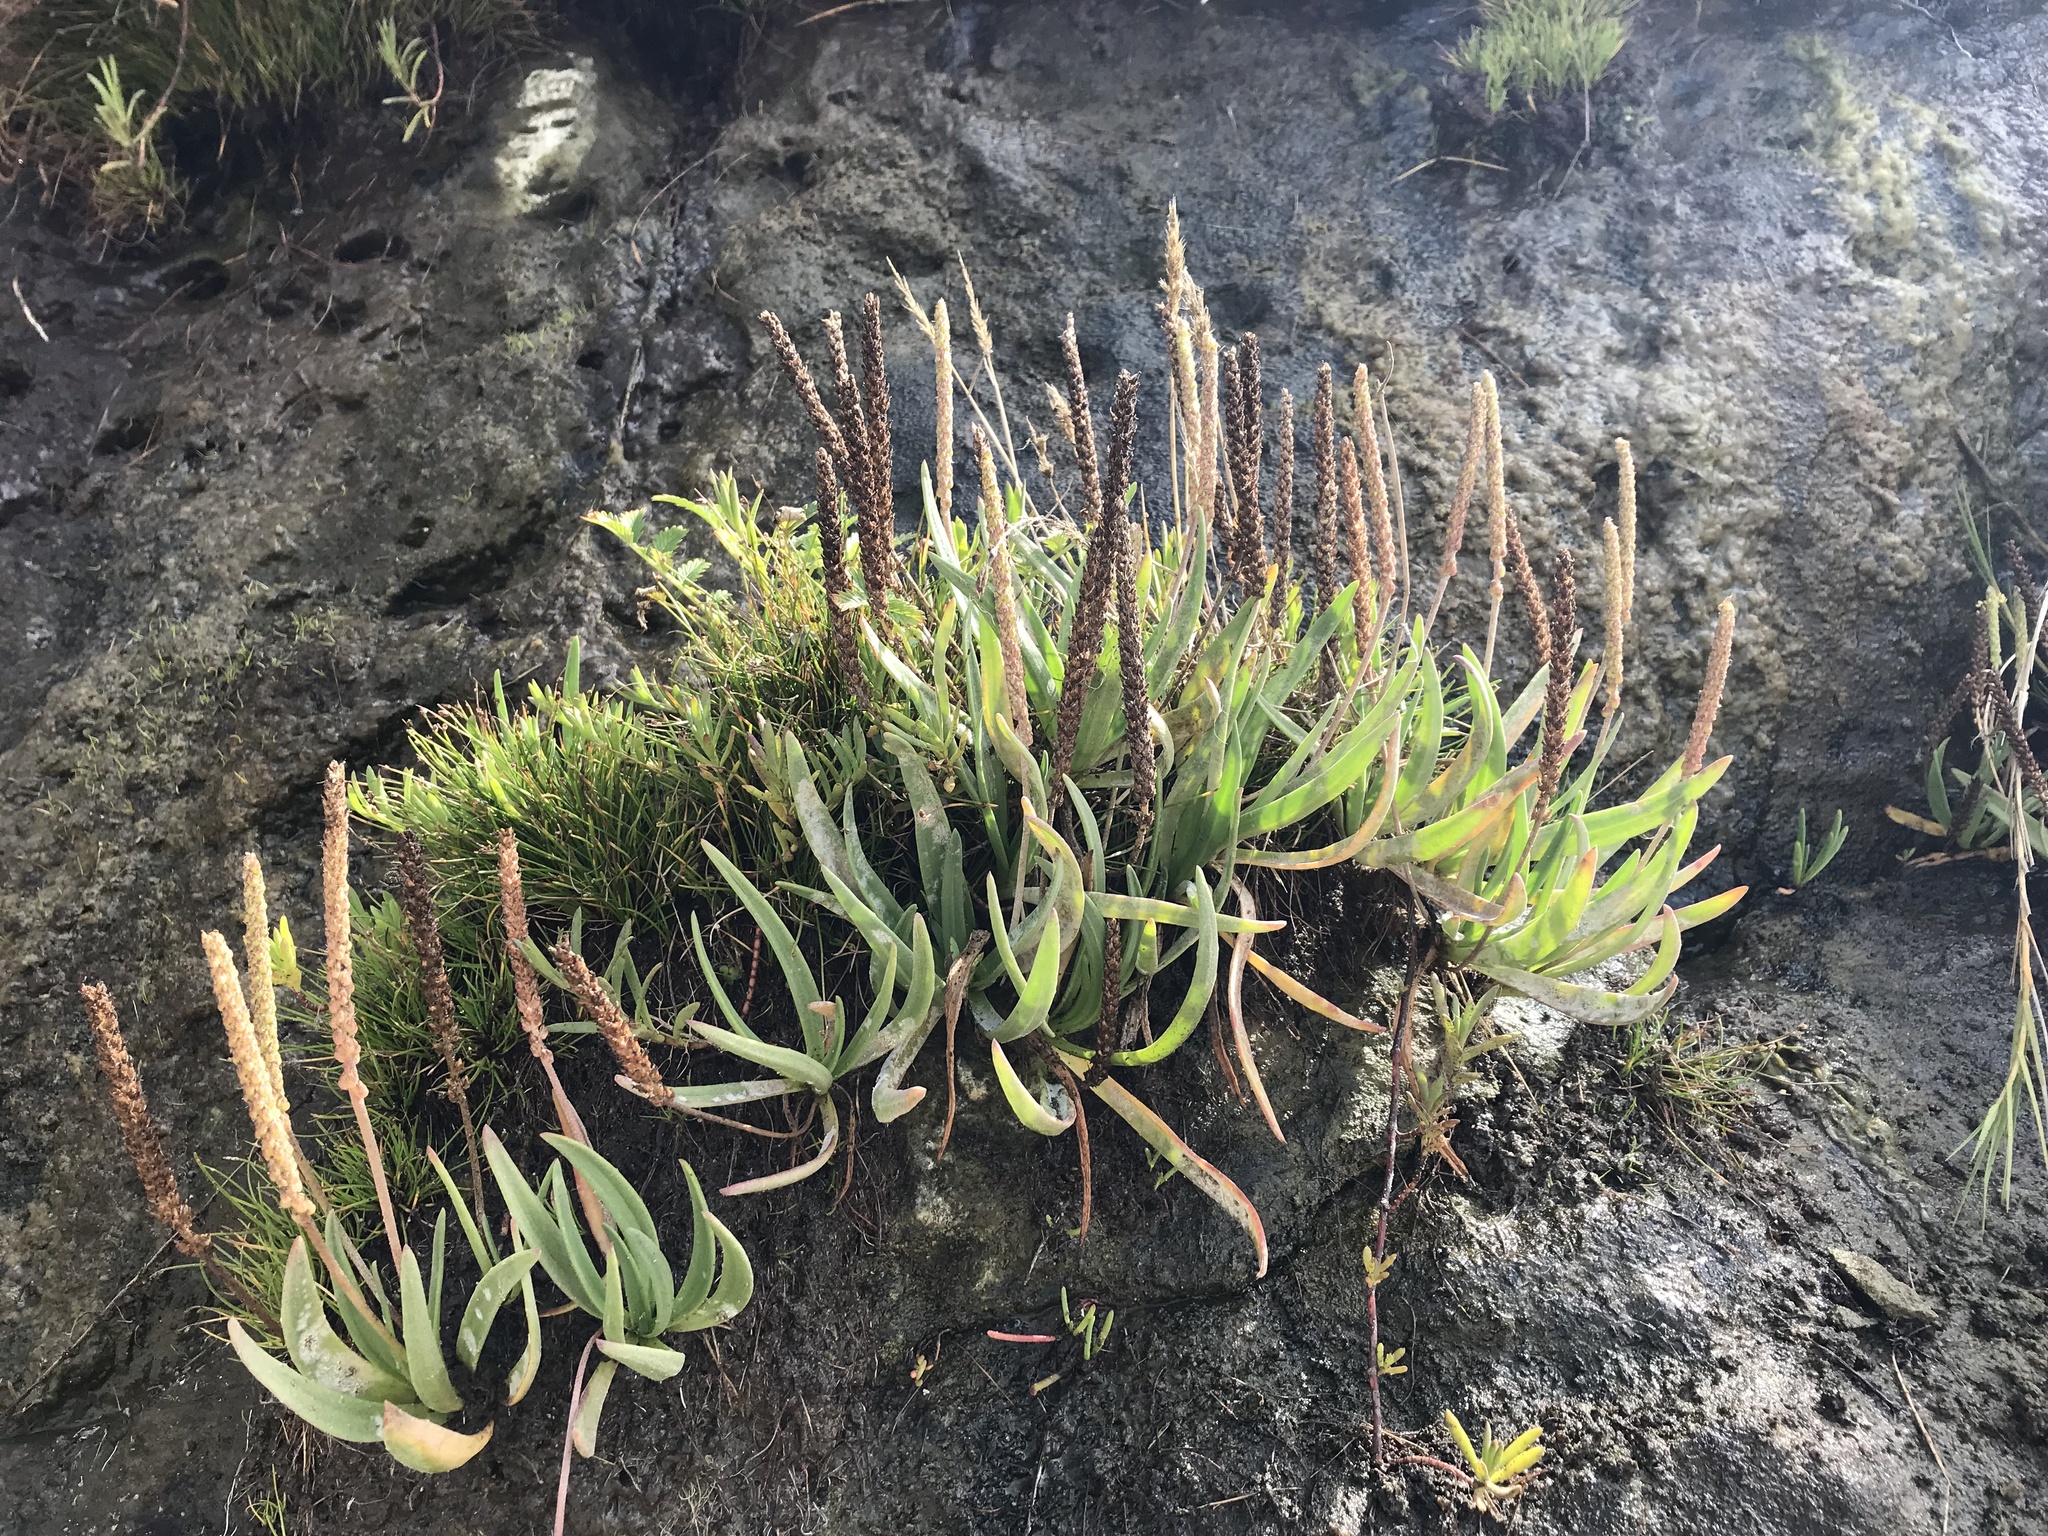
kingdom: Plantae
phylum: Tracheophyta
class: Magnoliopsida
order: Lamiales
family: Plantaginaceae
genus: Plantago
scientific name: Plantago maritima
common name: Sea plantain
